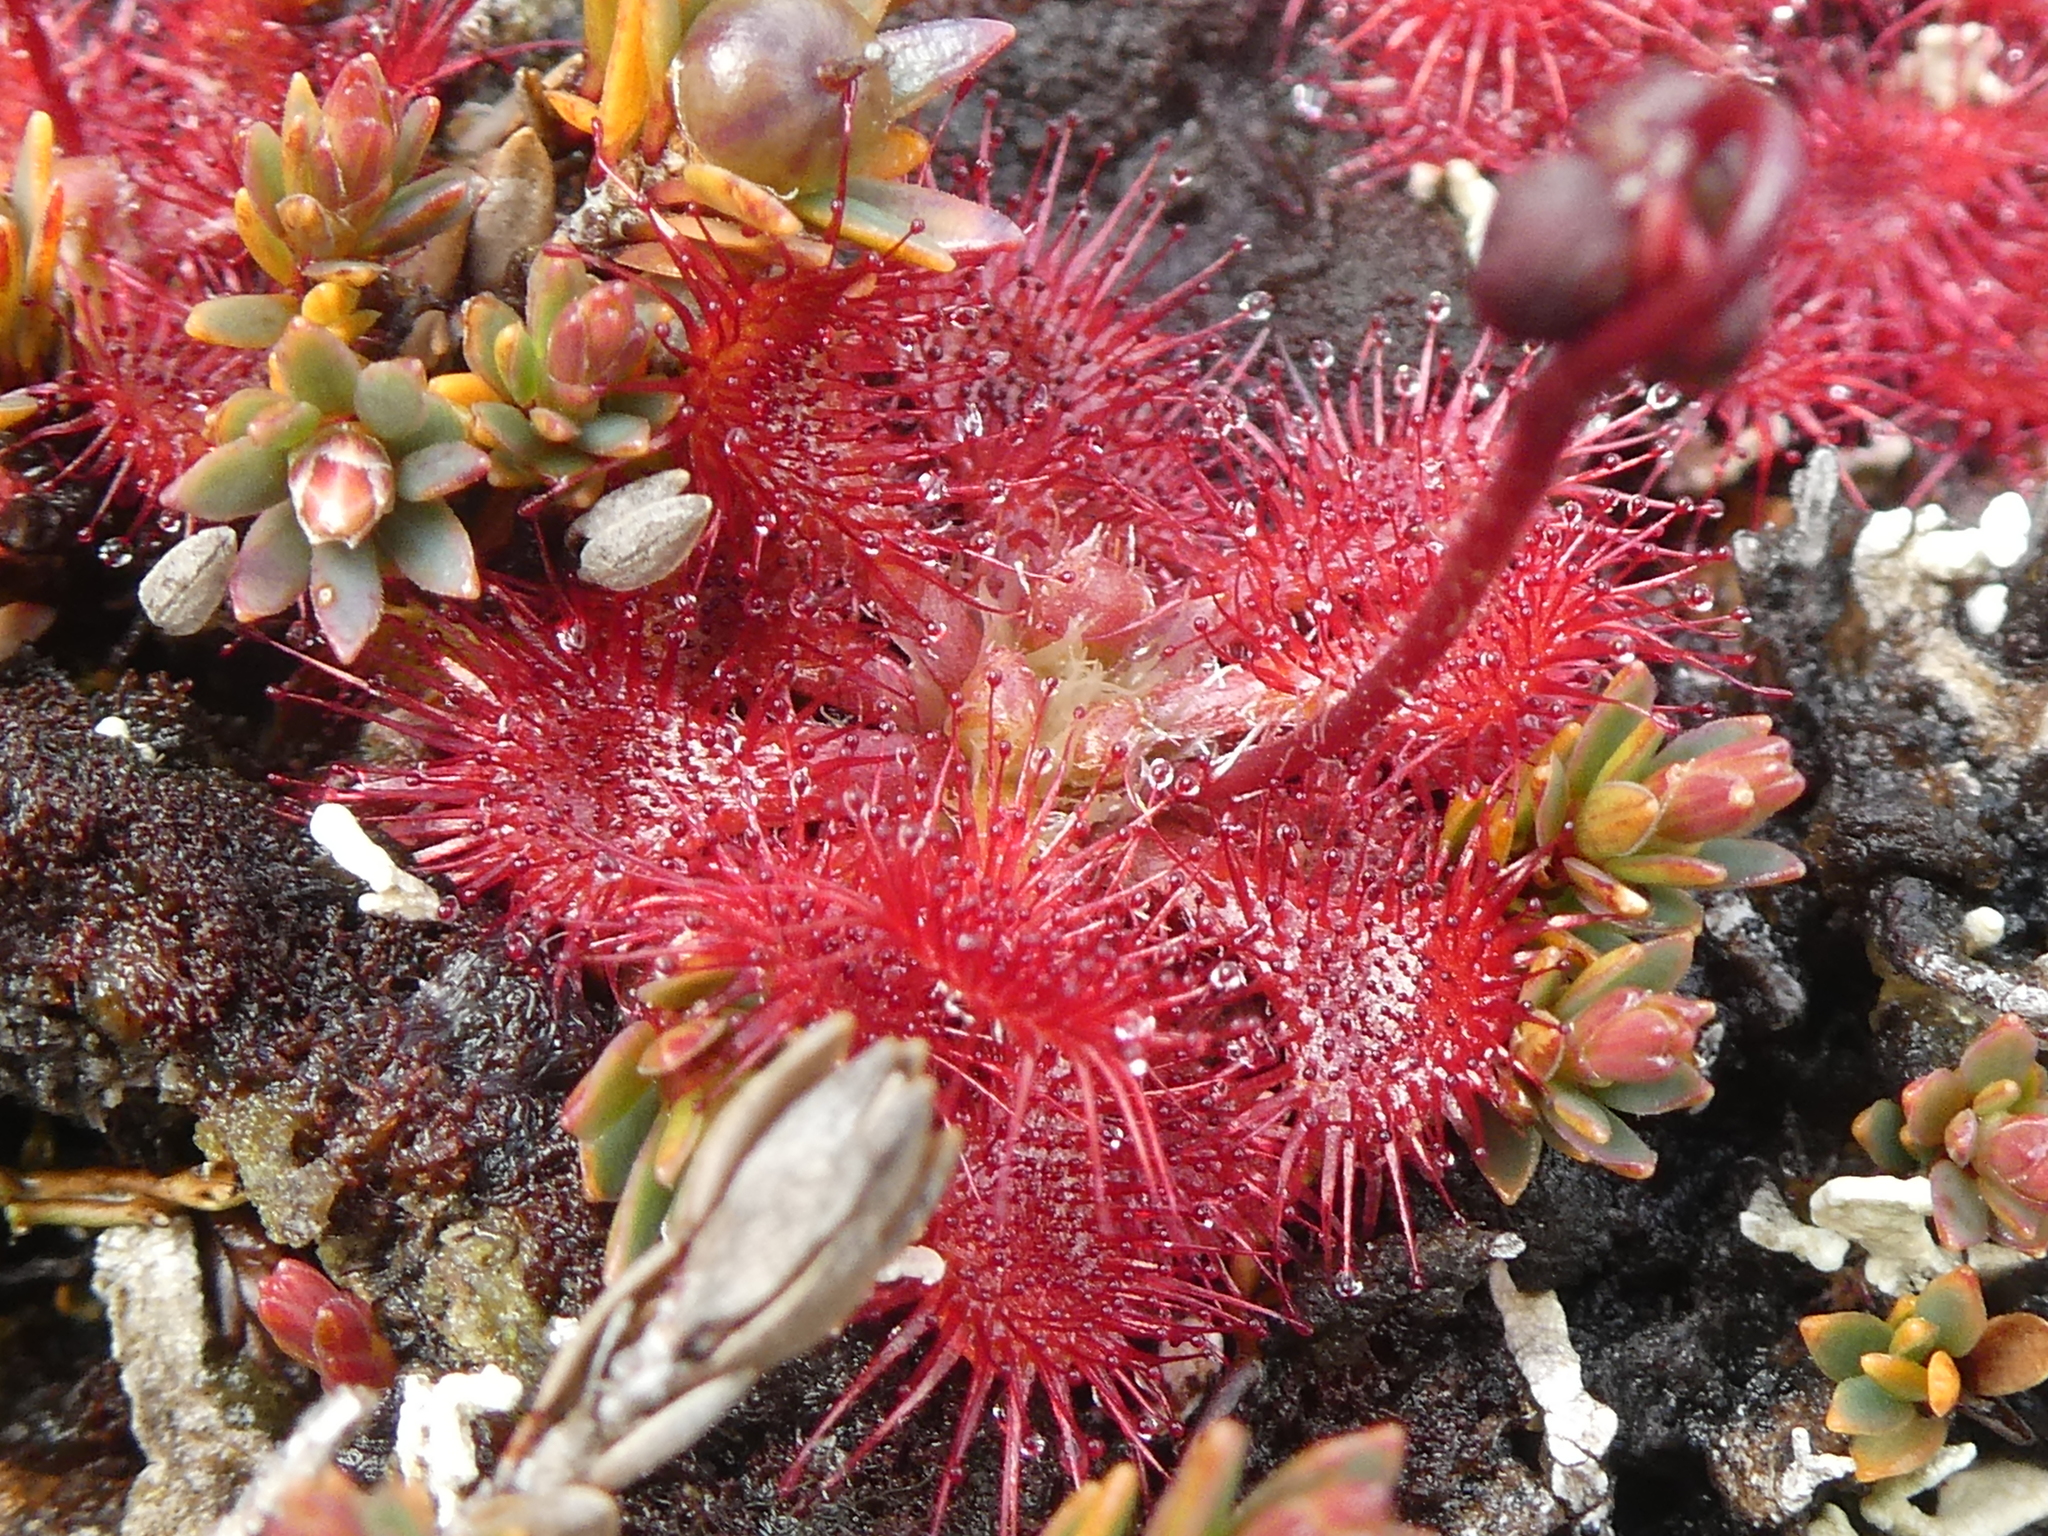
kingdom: Plantae
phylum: Tracheophyta
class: Magnoliopsida
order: Caryophyllales
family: Droseraceae
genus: Drosera
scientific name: Drosera spatulata
